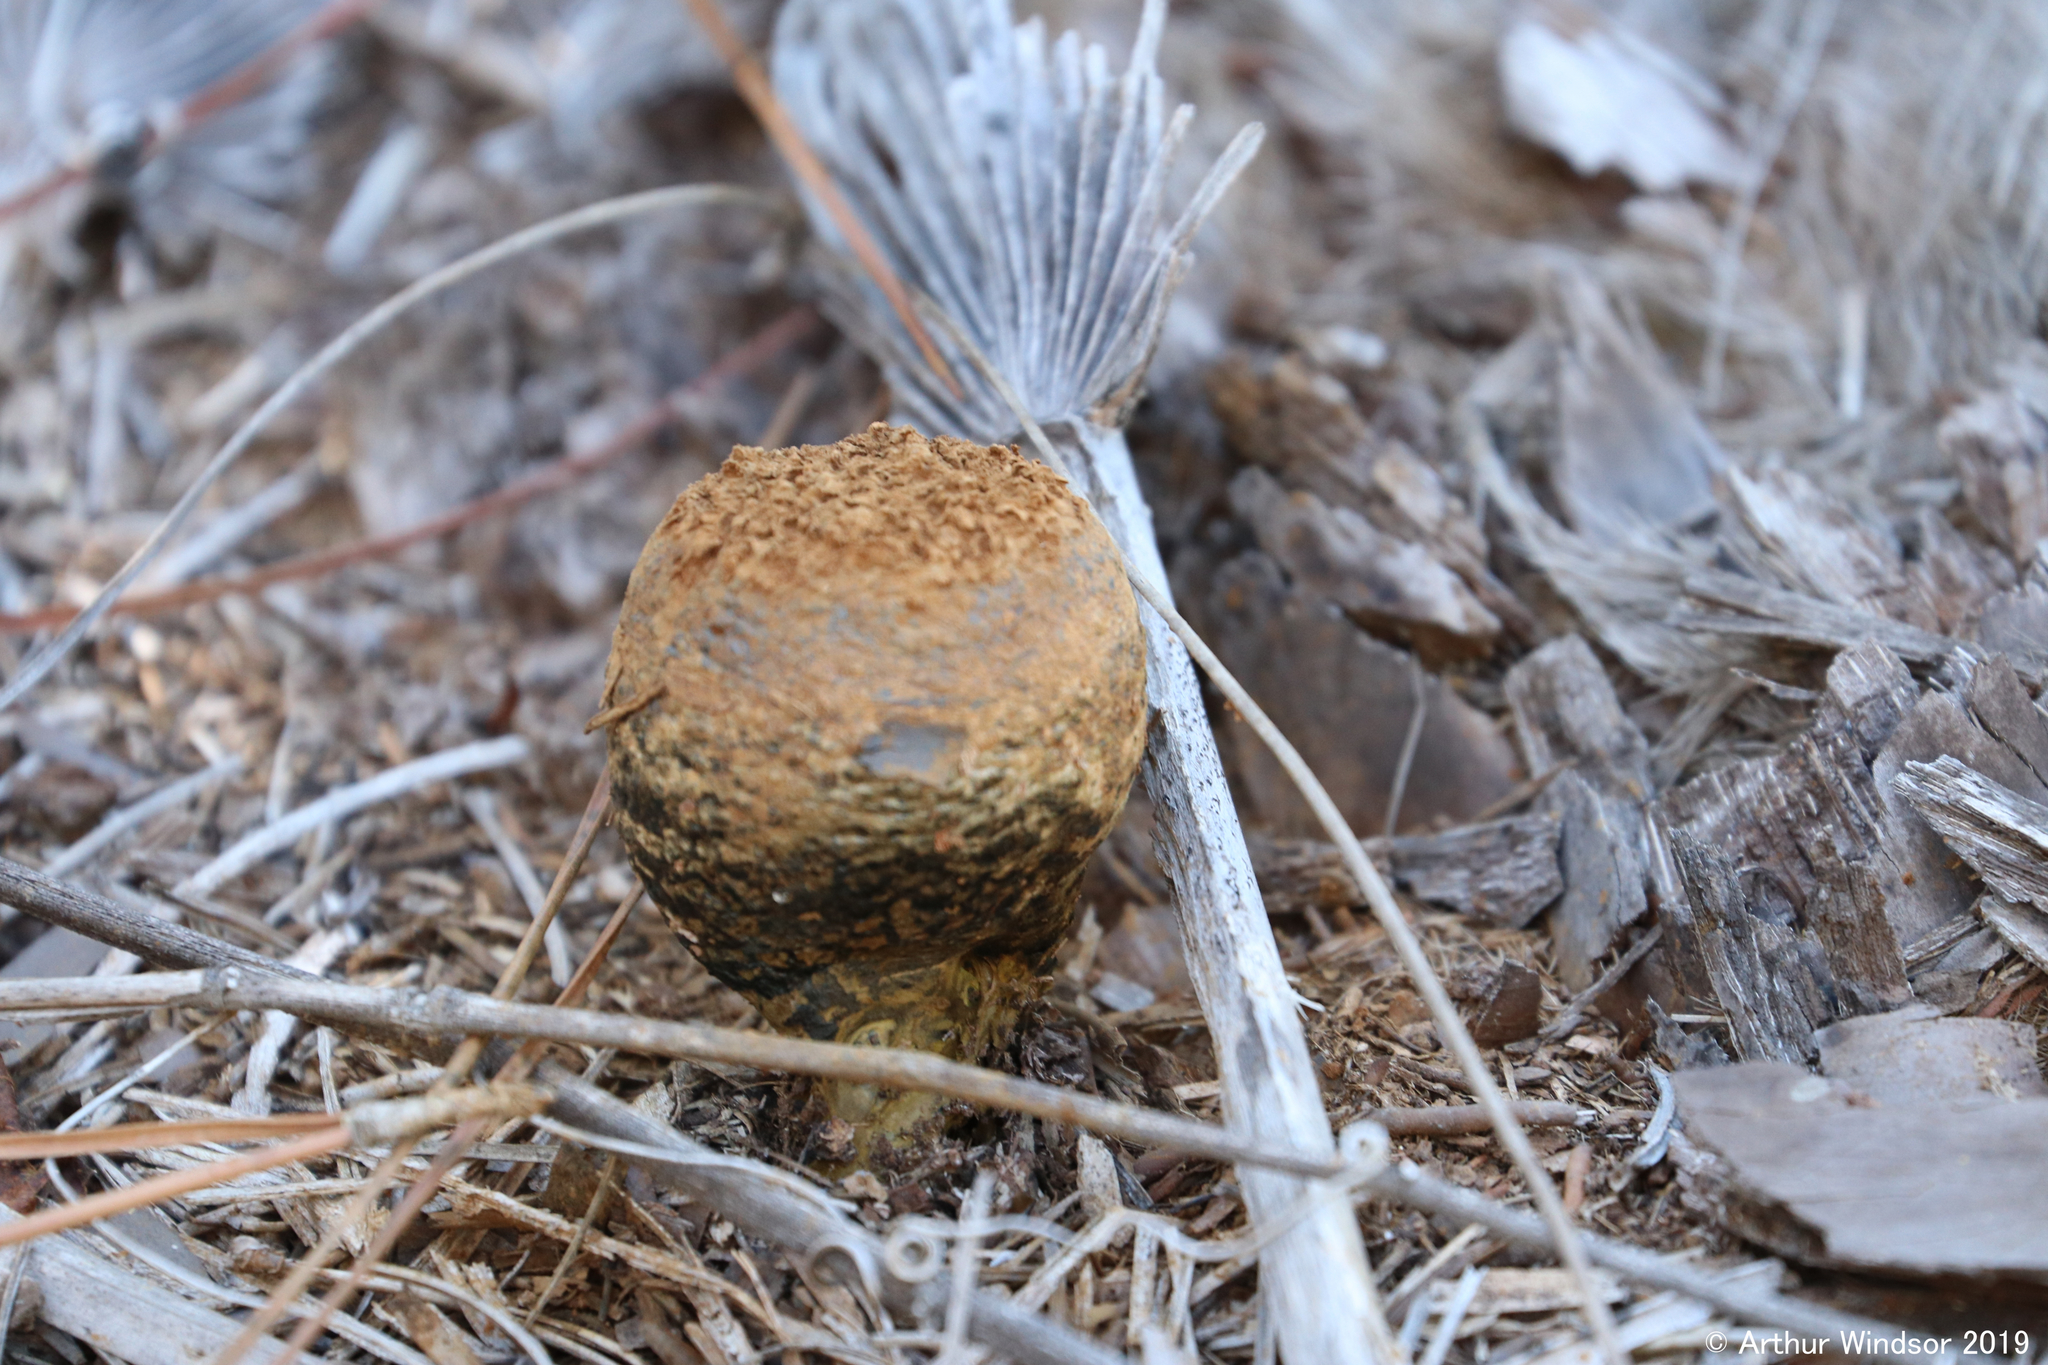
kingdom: Fungi
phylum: Basidiomycota
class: Agaricomycetes
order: Boletales
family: Sclerodermataceae
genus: Pisolithus
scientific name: Pisolithus arhizus
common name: Dyeball
